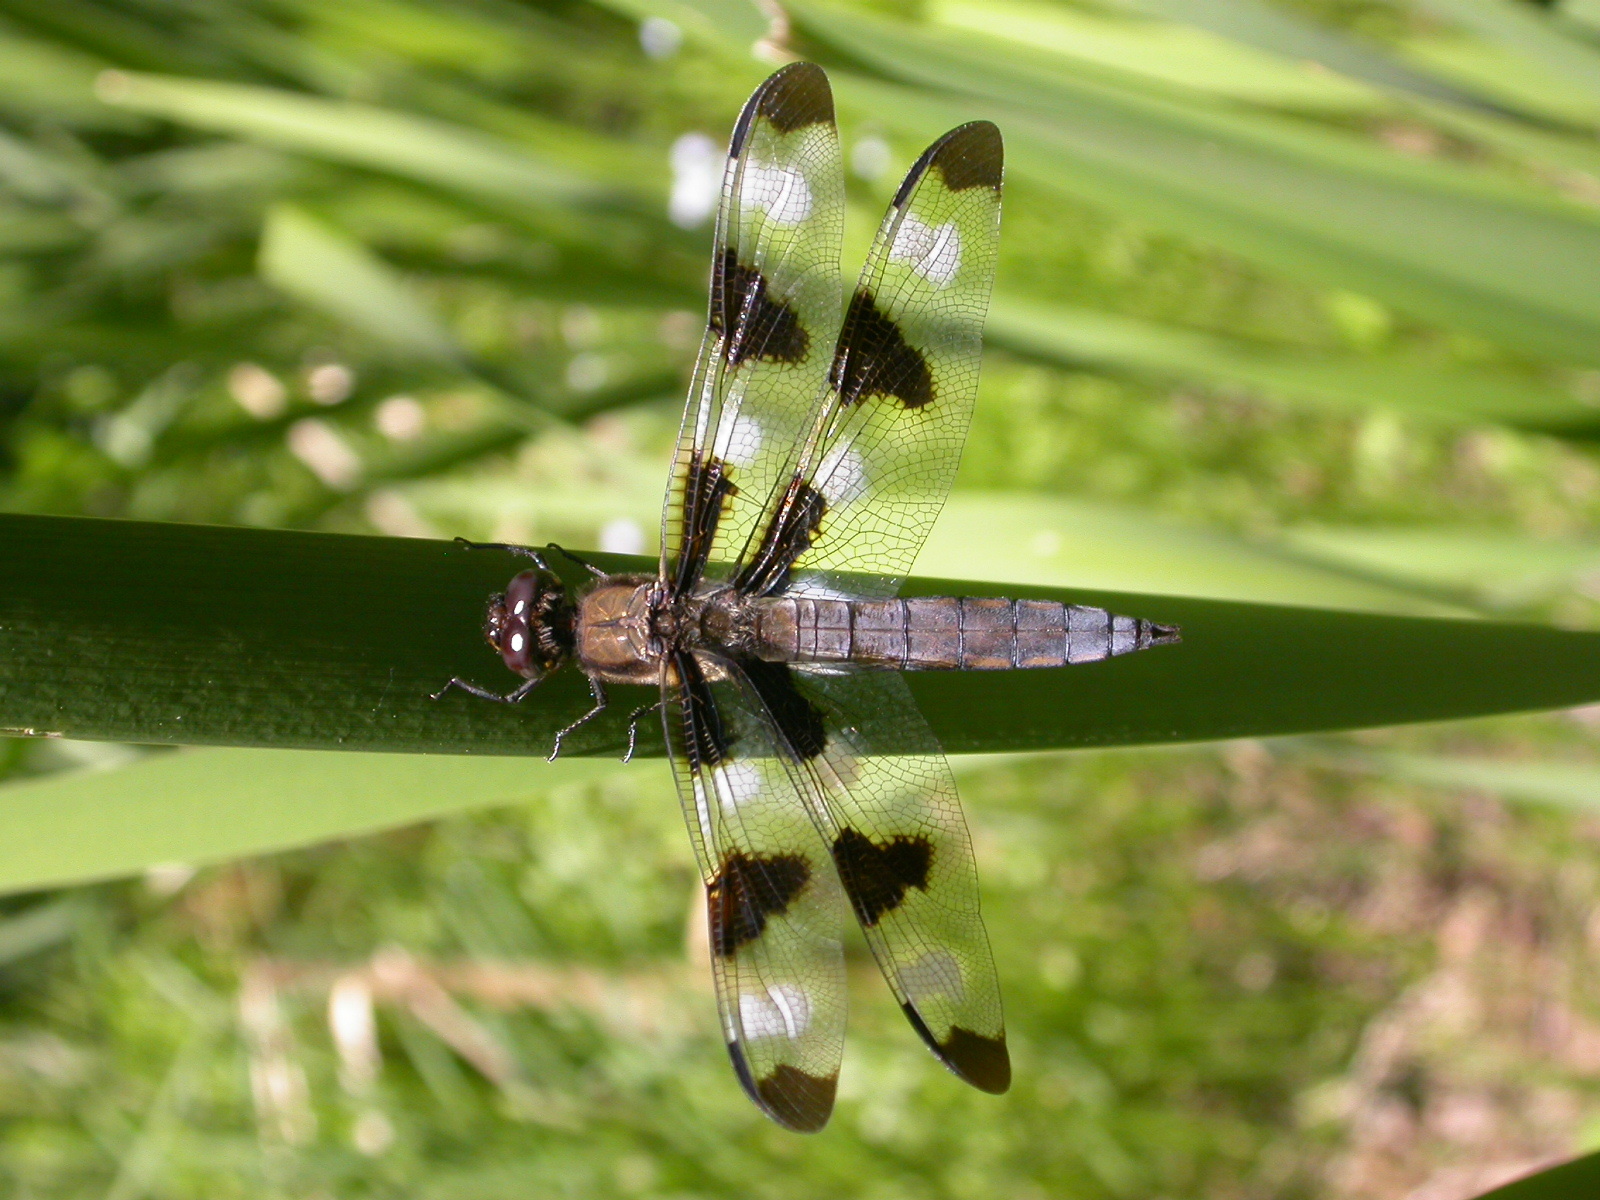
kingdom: Animalia
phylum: Arthropoda
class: Insecta
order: Odonata
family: Libellulidae
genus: Libellula
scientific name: Libellula pulchella
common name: Twelve-spotted skimmer
